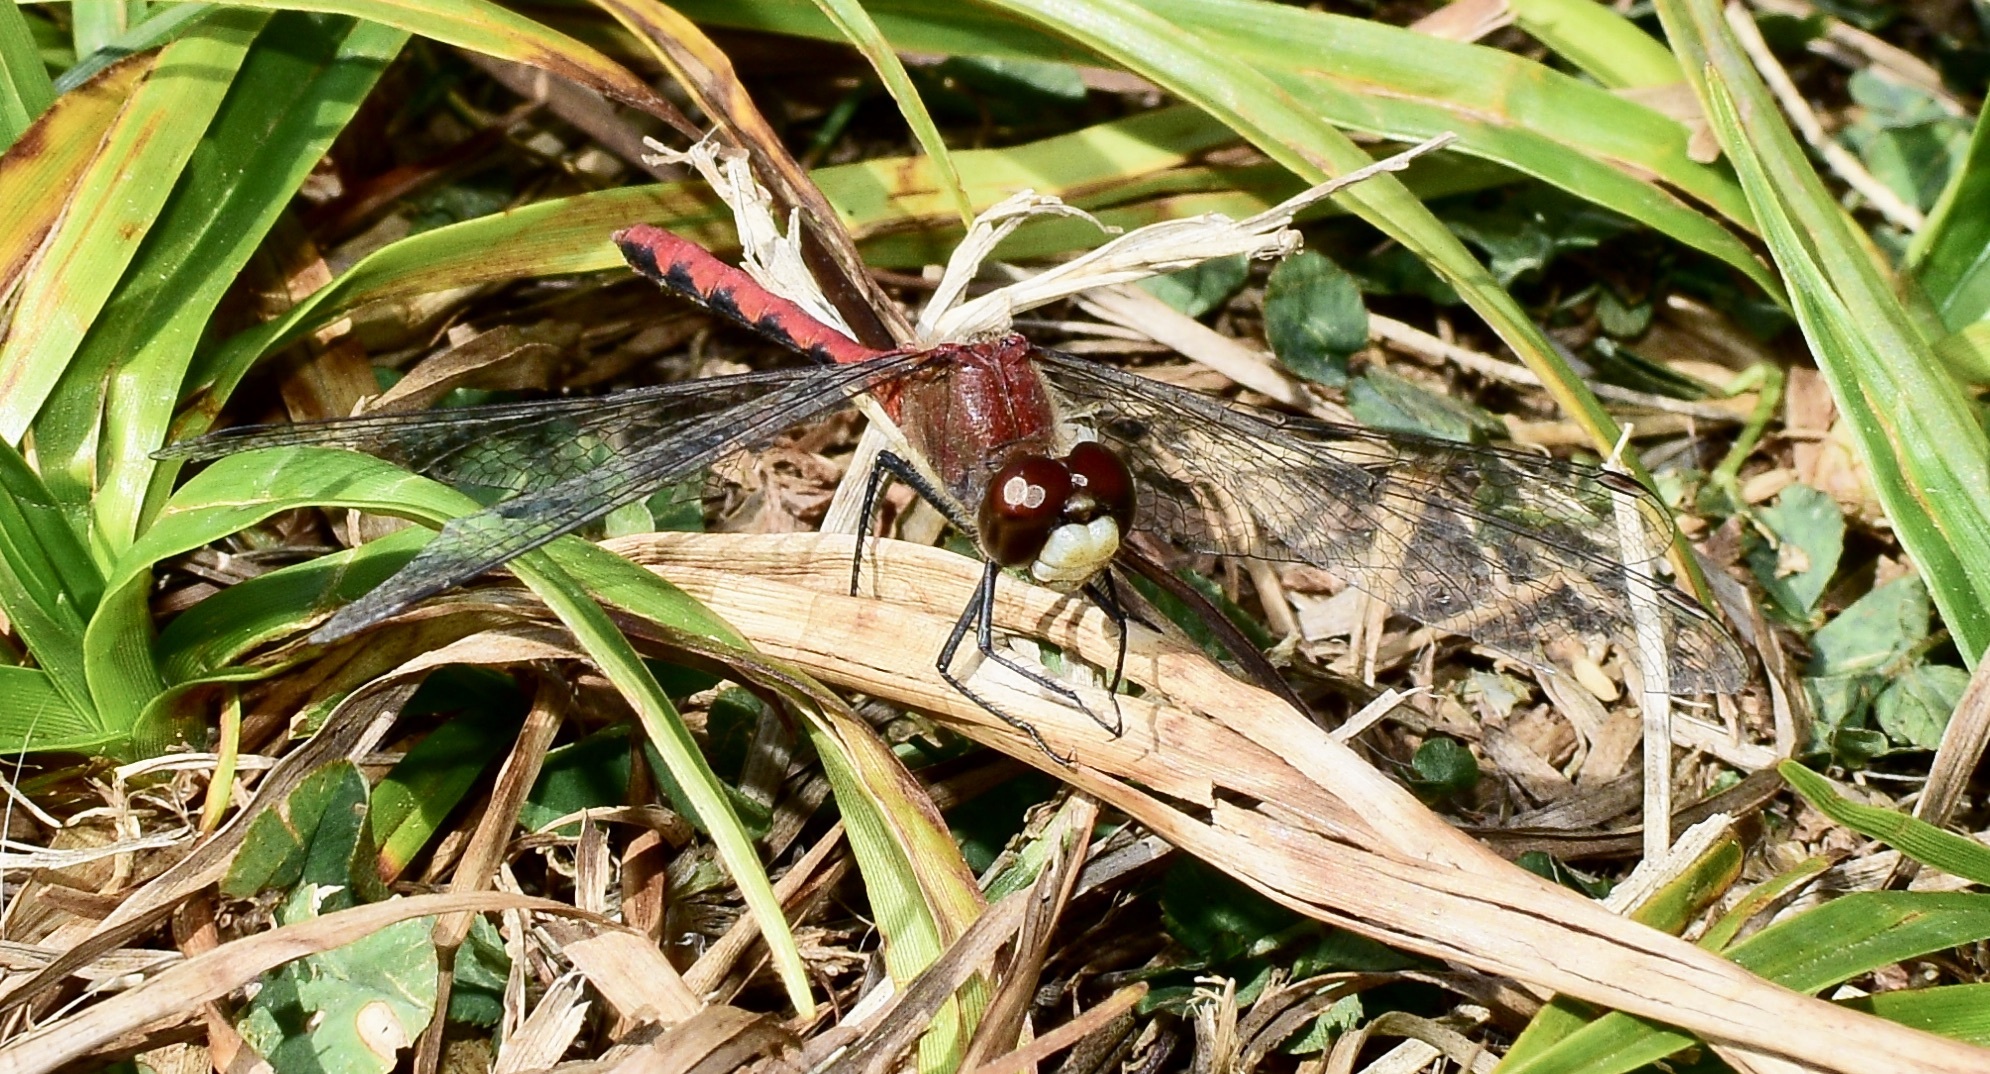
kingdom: Animalia
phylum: Arthropoda
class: Insecta
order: Odonata
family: Libellulidae
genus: Sympetrum
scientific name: Sympetrum obtrusum
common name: White-faced meadowhawk
